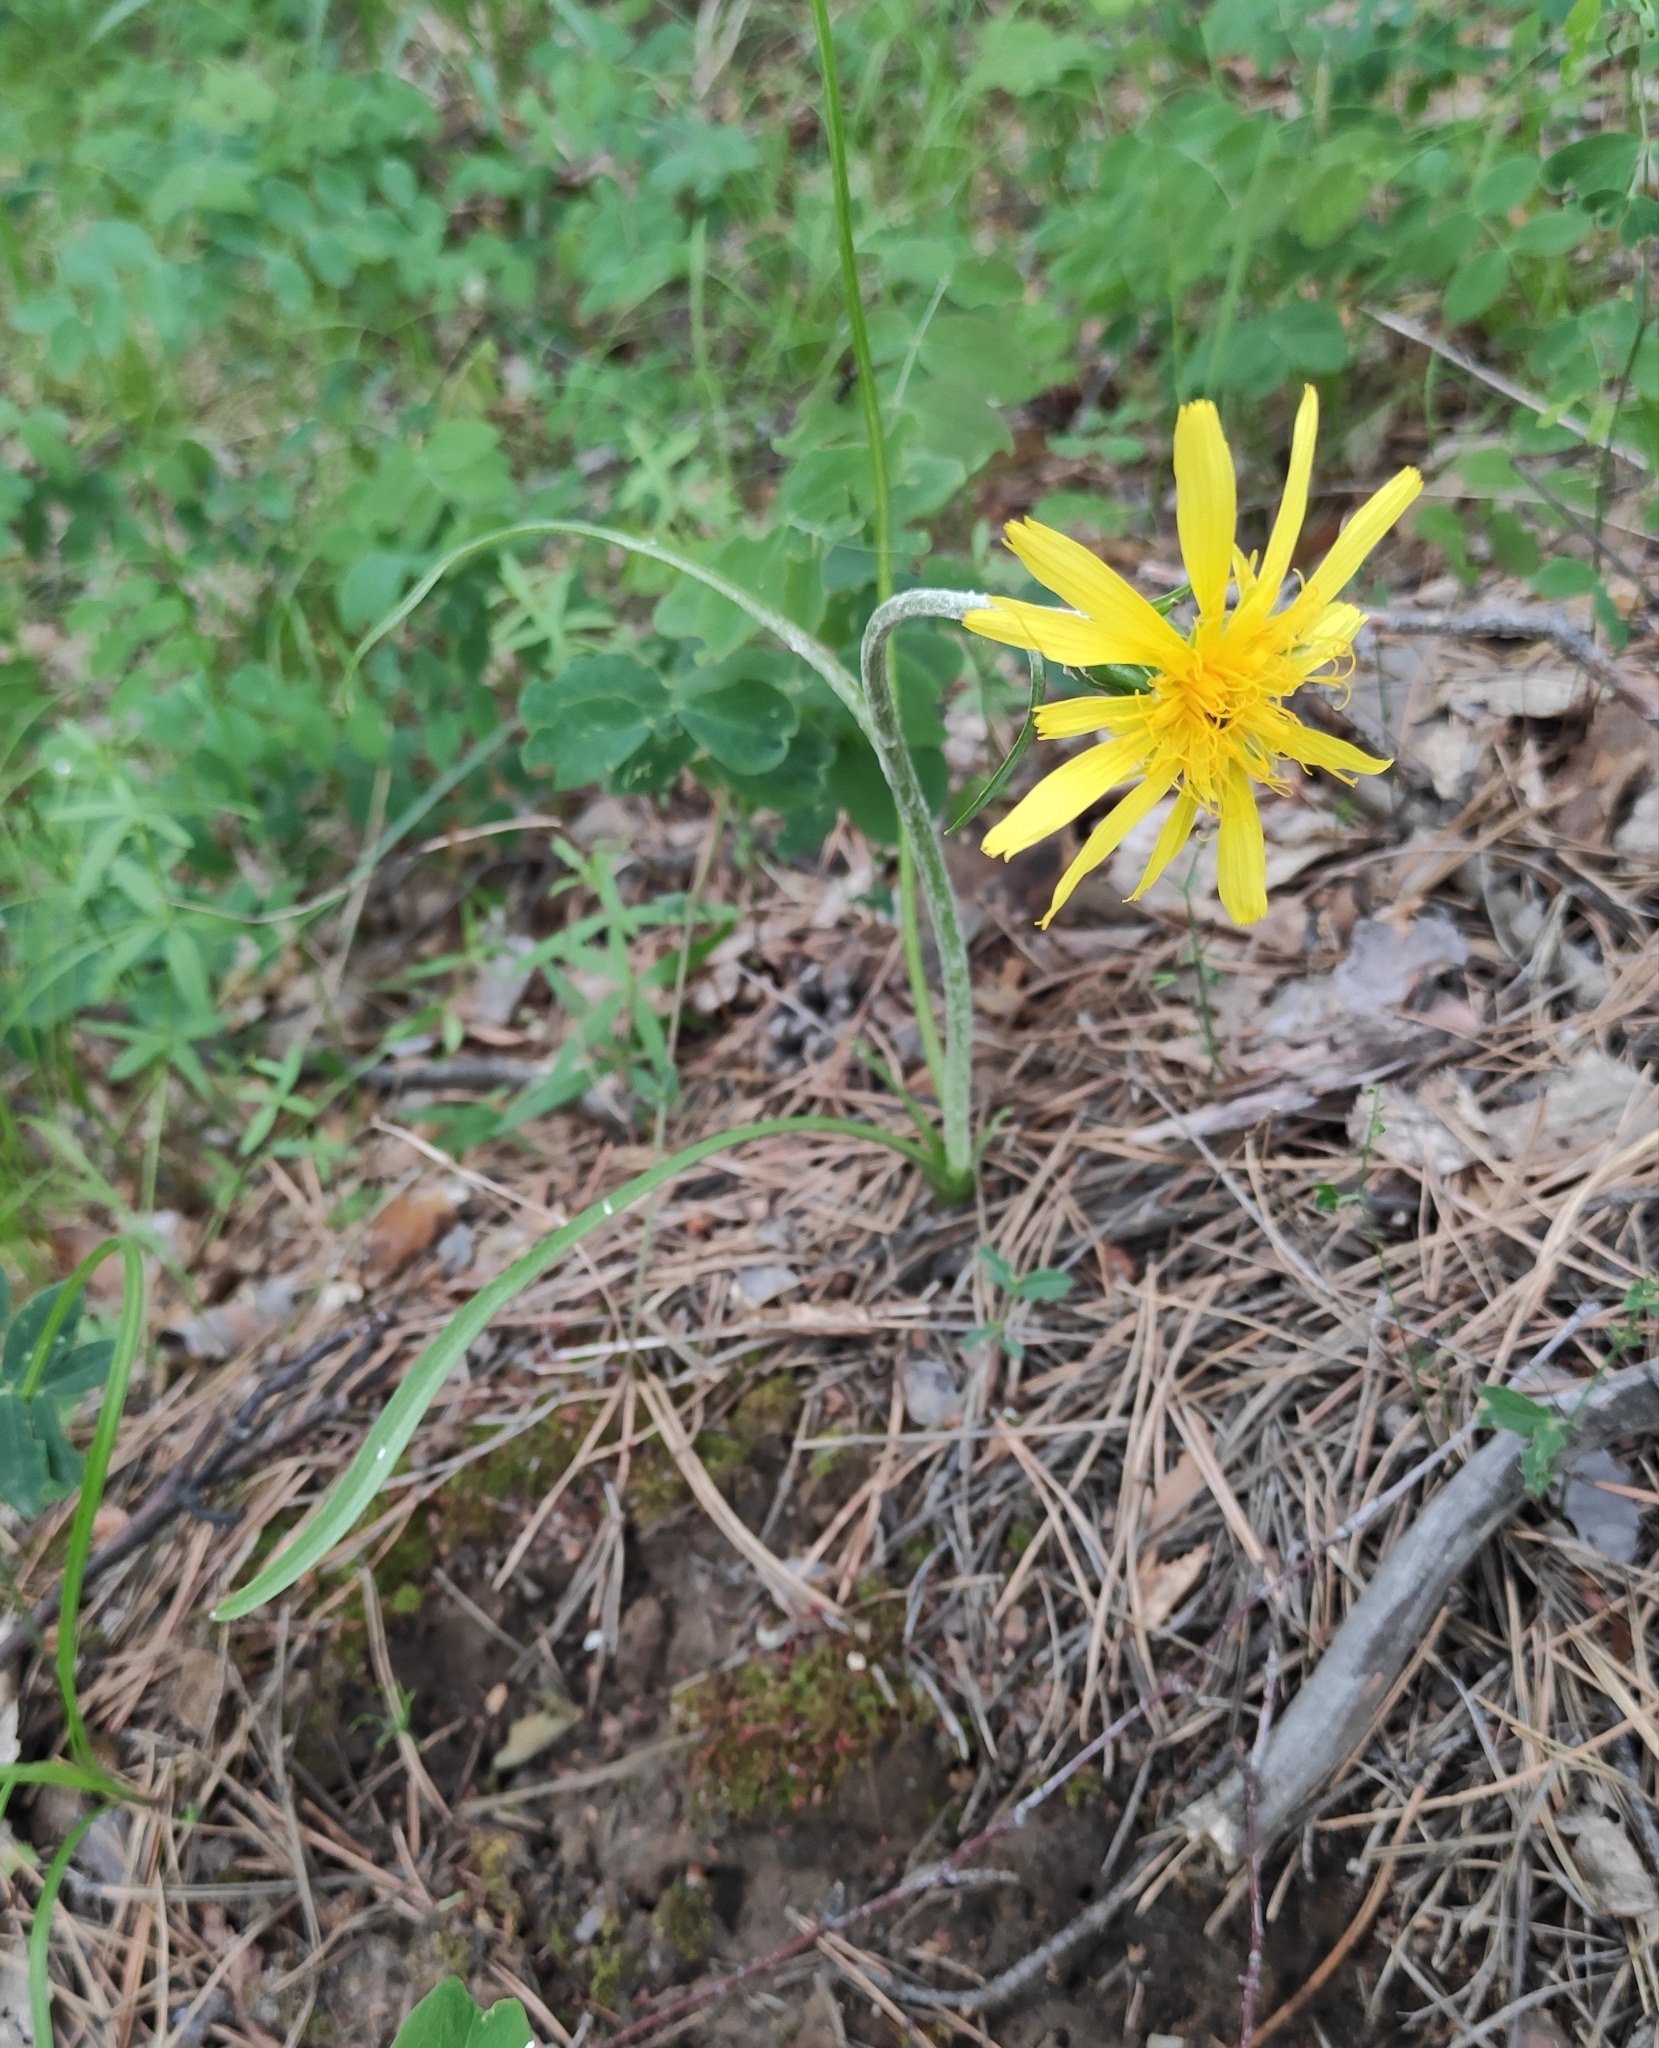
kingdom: Plantae
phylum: Tracheophyta
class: Magnoliopsida
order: Asterales
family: Asteraceae
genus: Scorzonera
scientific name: Scorzonera radiata
